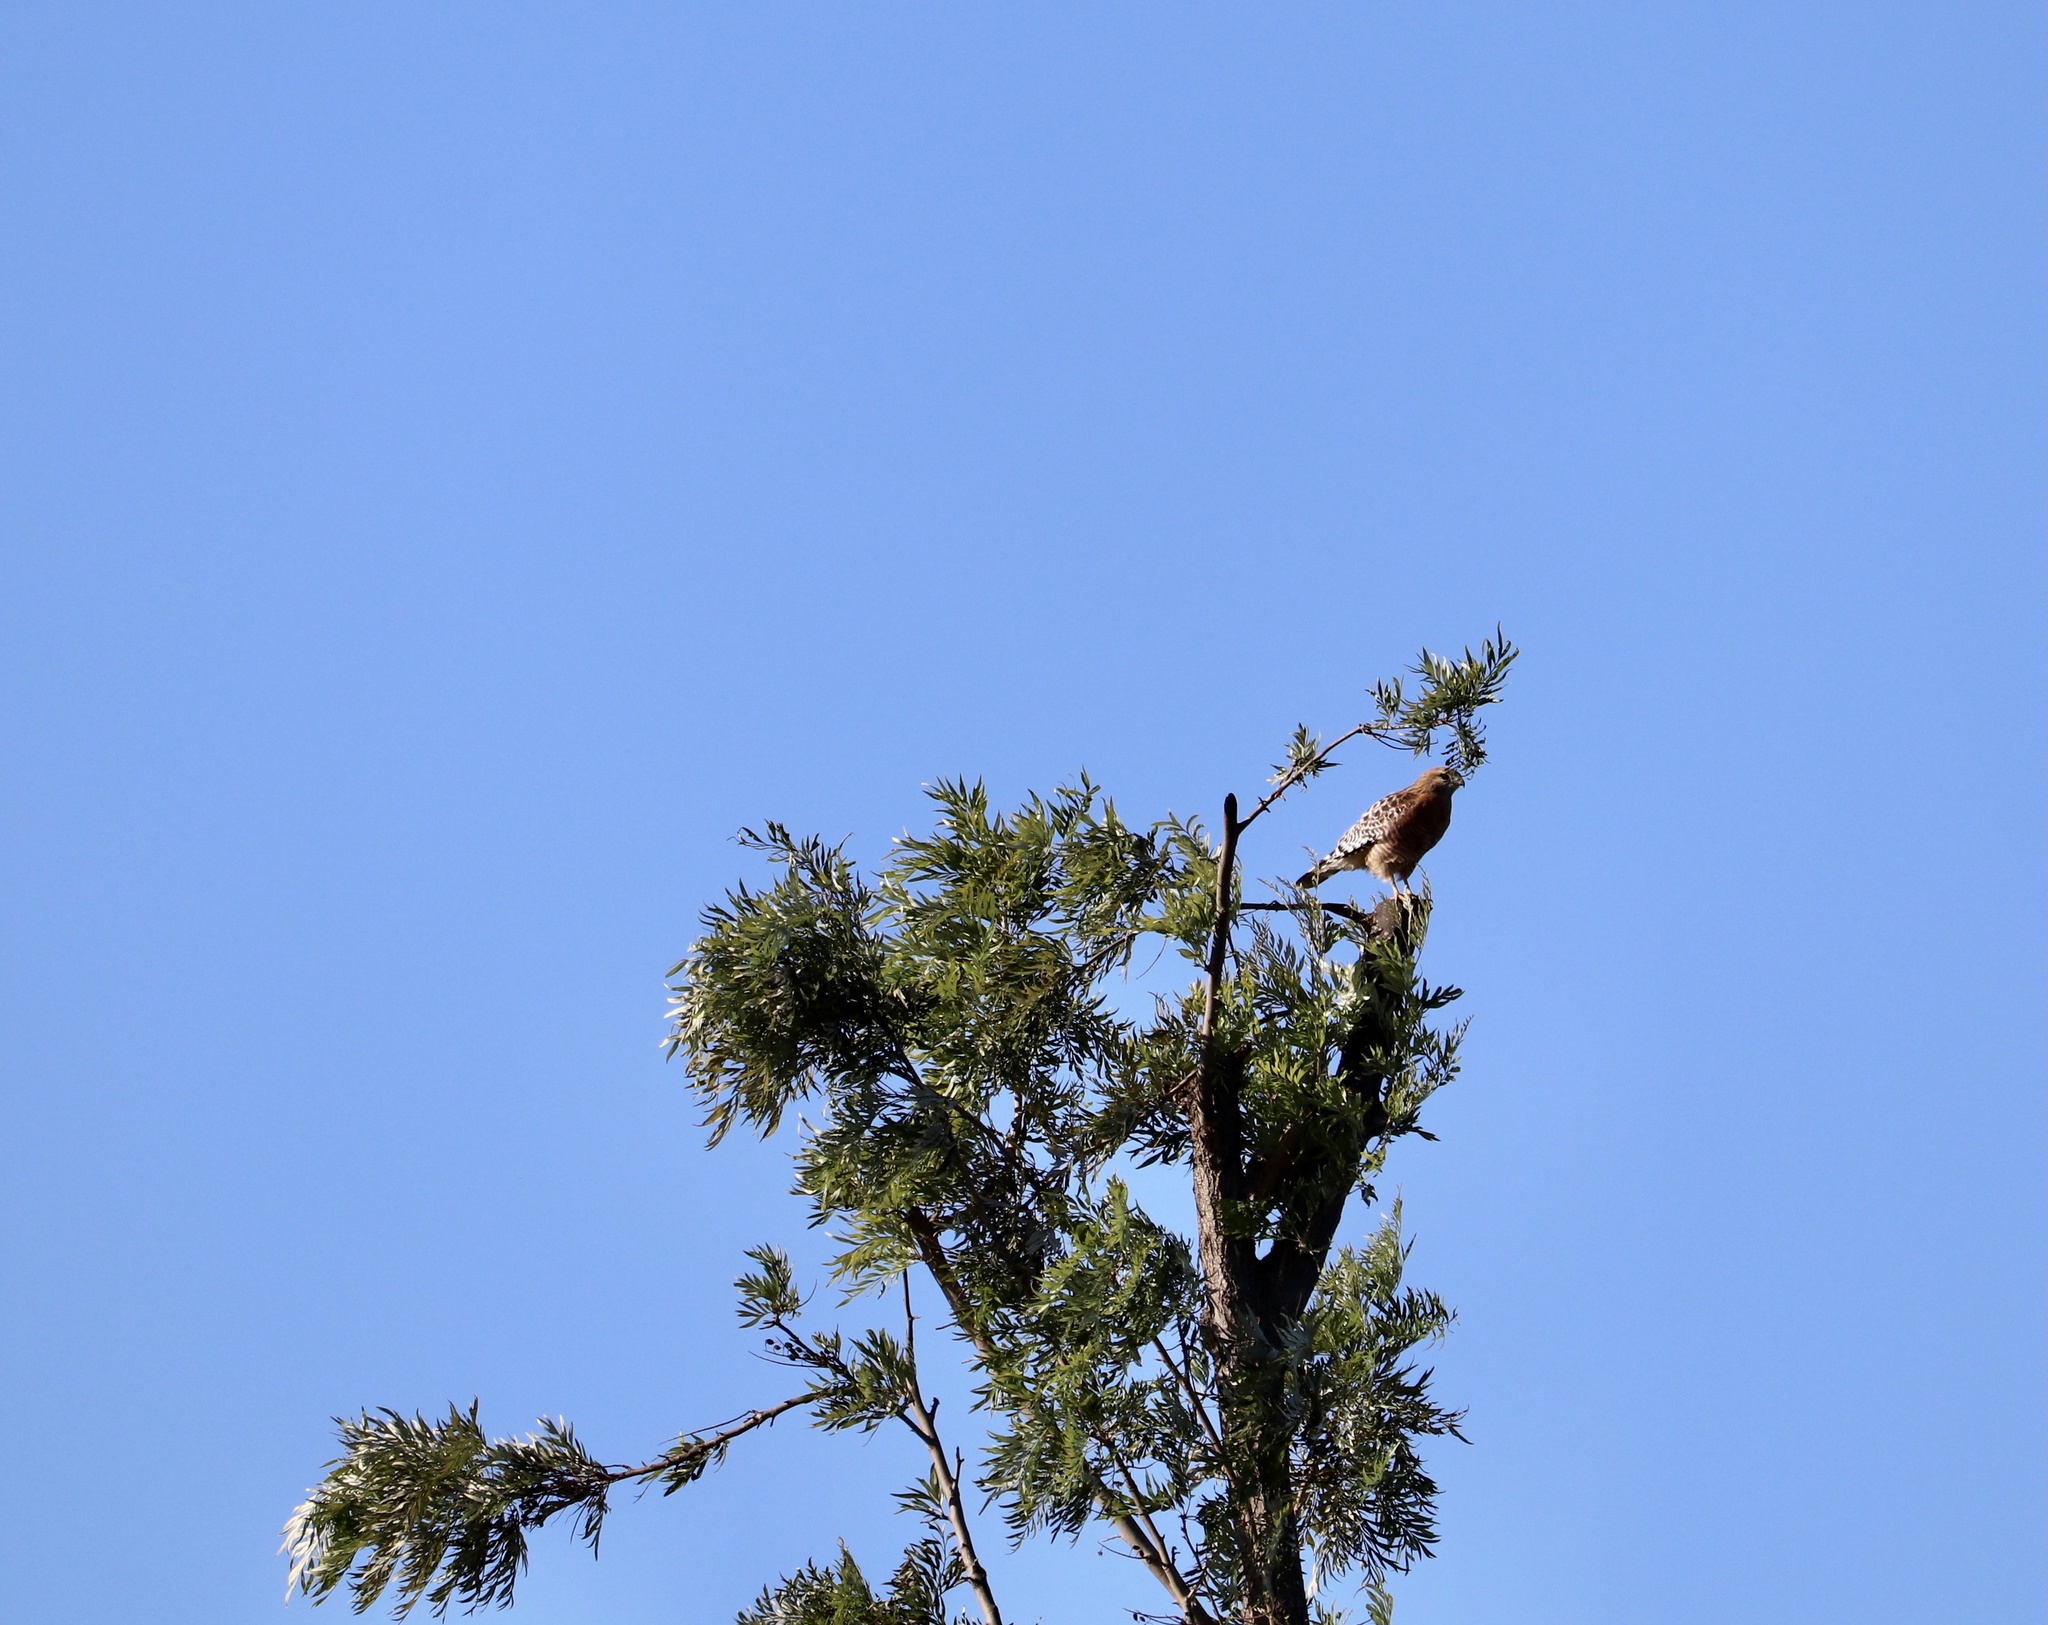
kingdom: Animalia
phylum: Chordata
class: Aves
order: Accipitriformes
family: Accipitridae
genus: Buteo
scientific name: Buteo lineatus
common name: Red-shouldered hawk
